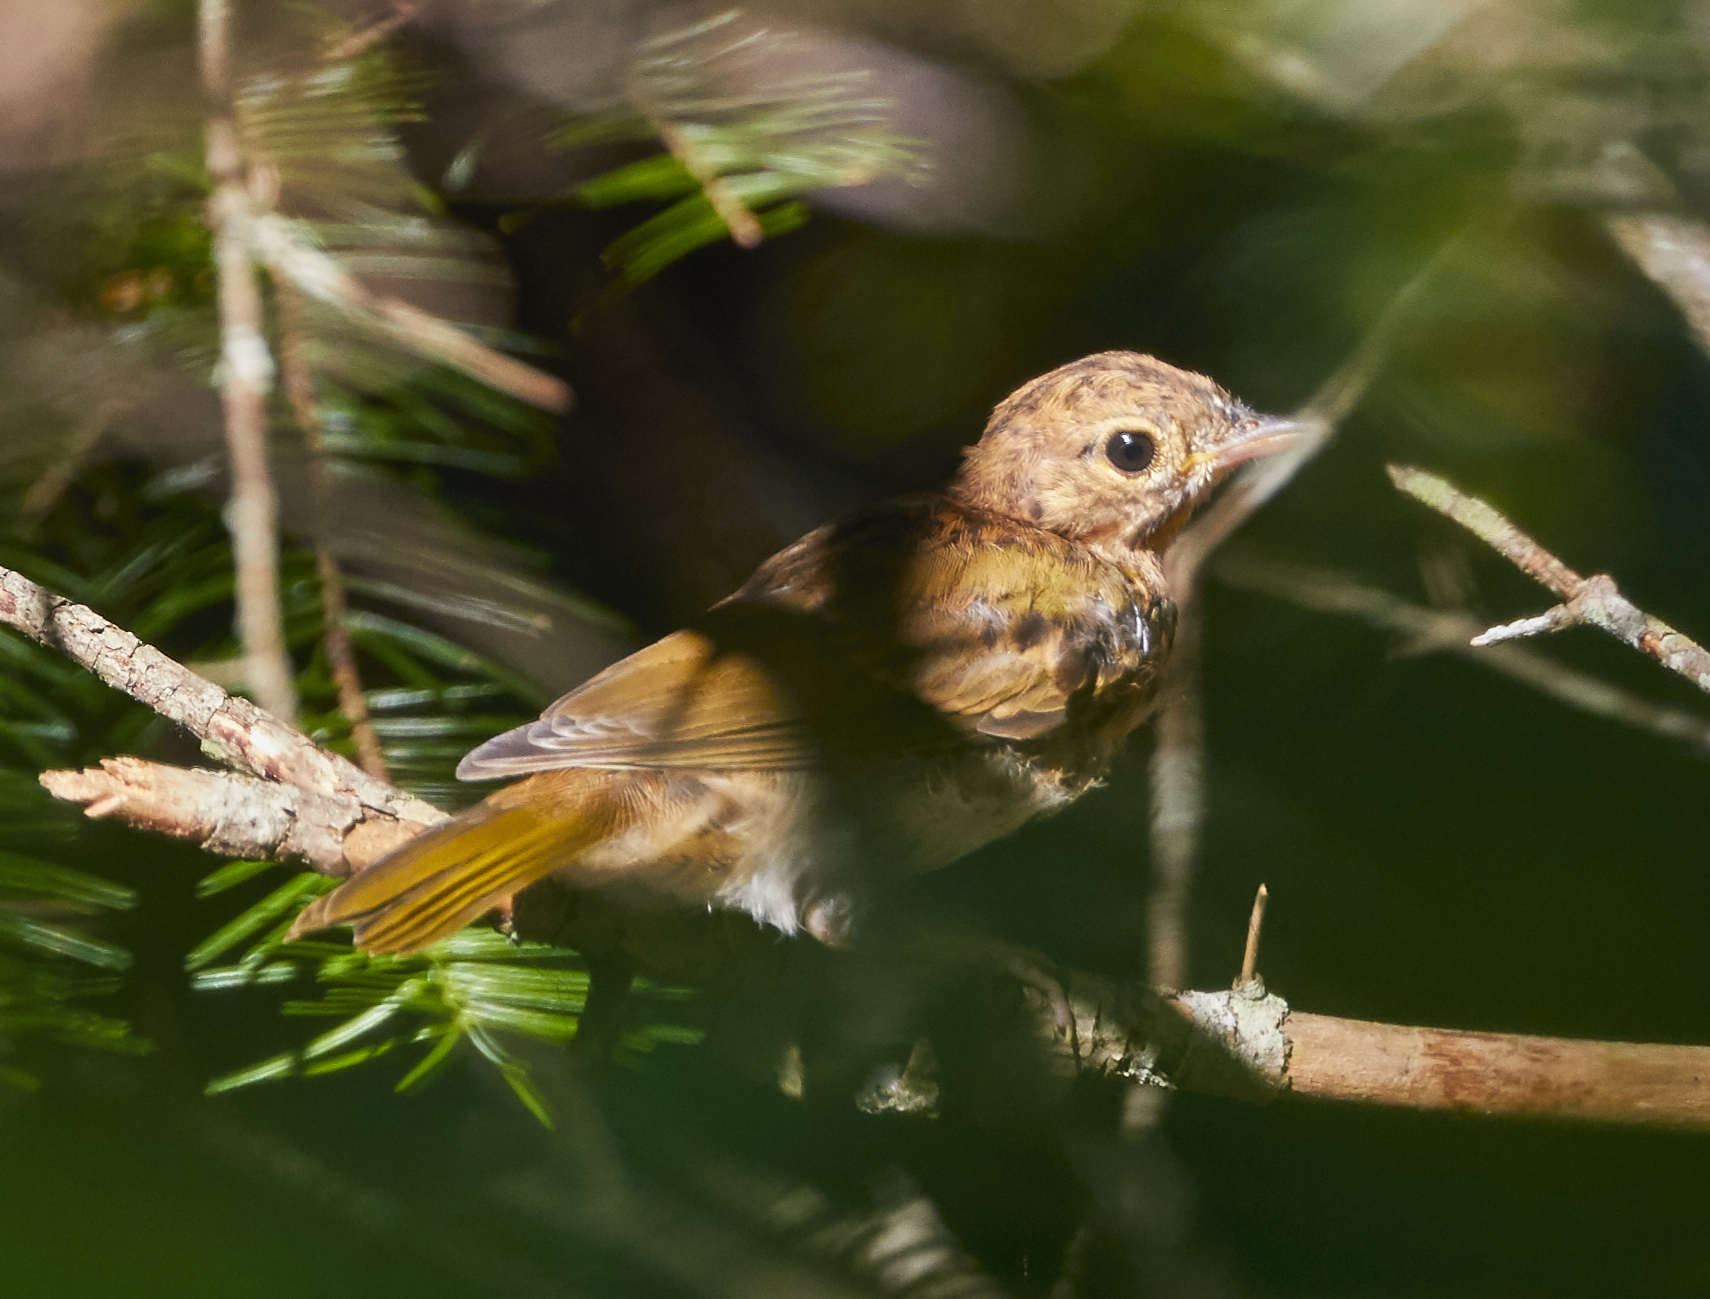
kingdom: Animalia
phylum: Chordata
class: Aves
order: Passeriformes
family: Turdidae
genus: Catharus
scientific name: Catharus guttatus
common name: Hermit thrush
